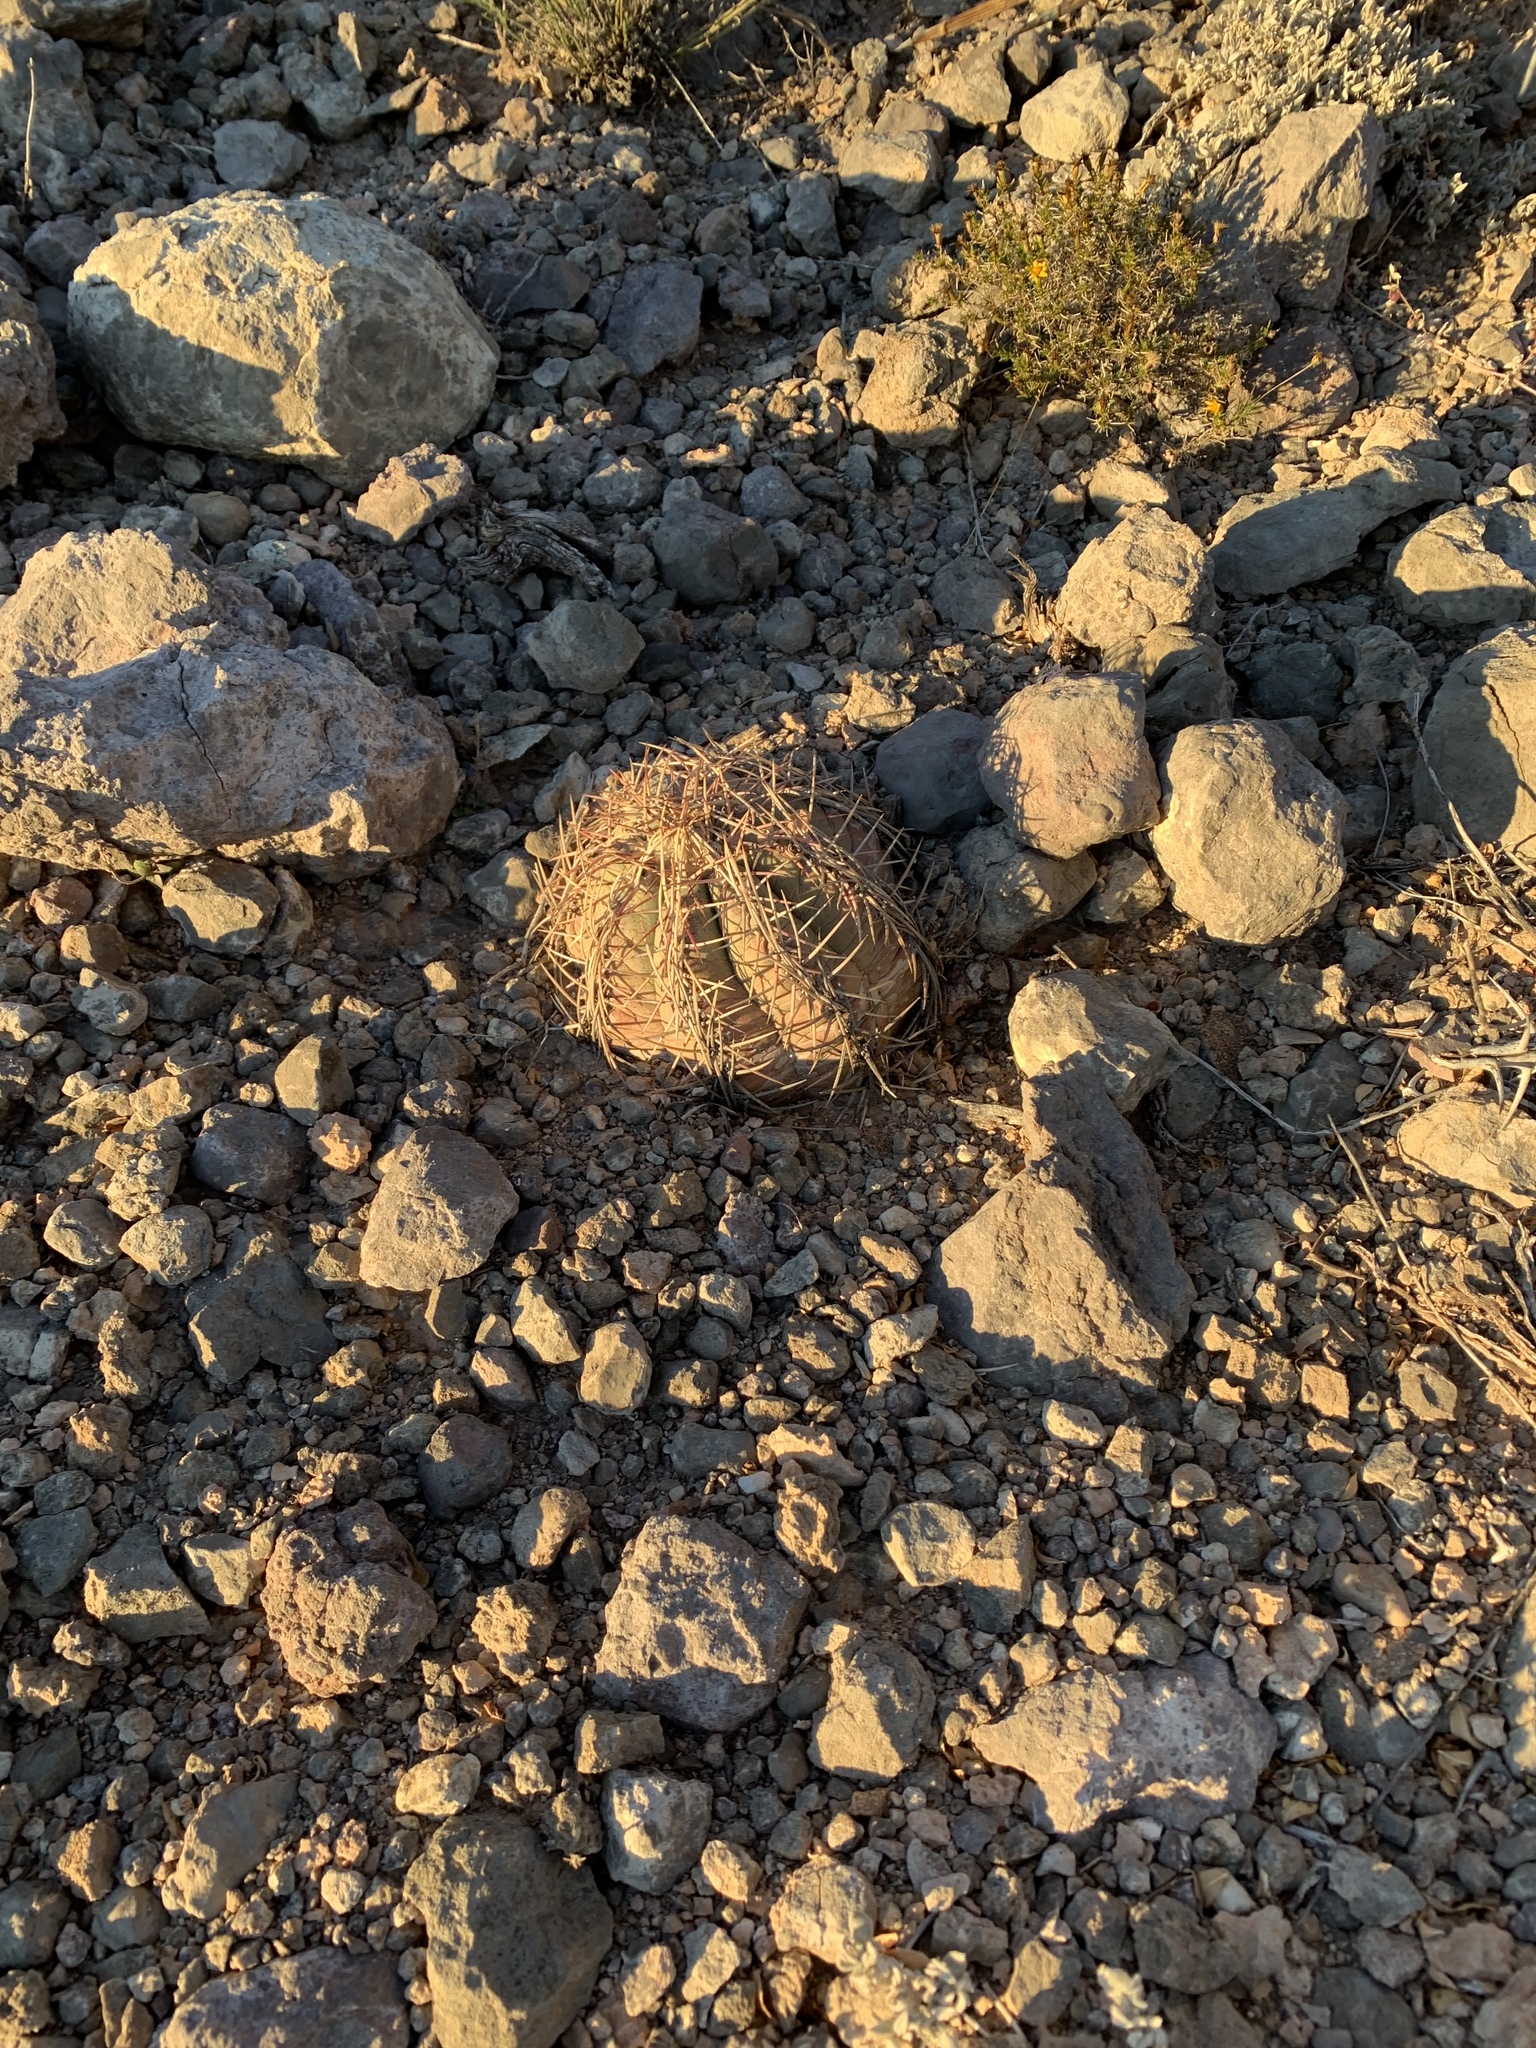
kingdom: Plantae
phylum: Tracheophyta
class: Magnoliopsida
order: Caryophyllales
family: Cactaceae
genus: Echinocactus
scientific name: Echinocactus horizonthalonius
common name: Devilshead
